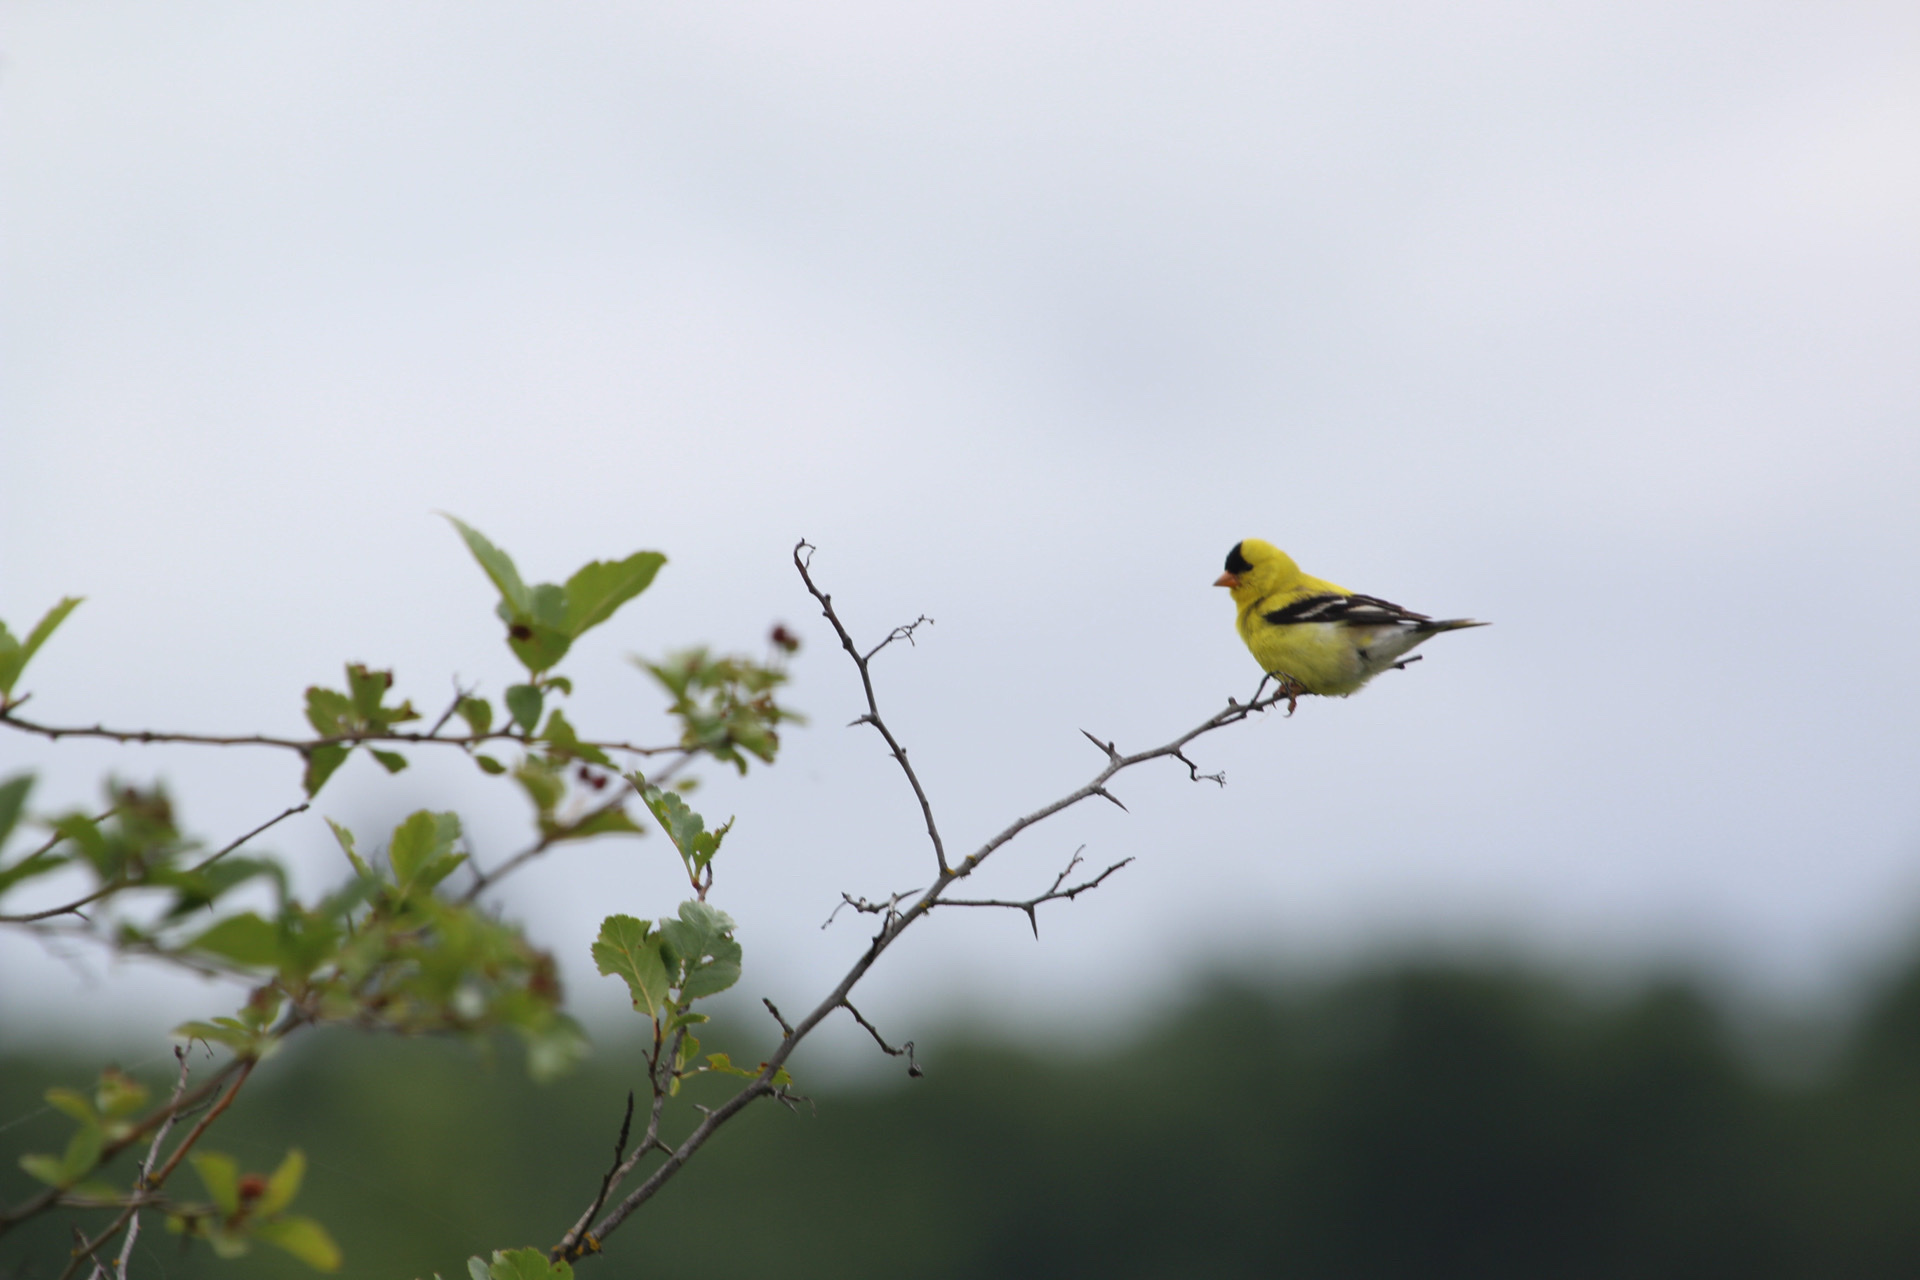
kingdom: Animalia
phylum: Chordata
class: Aves
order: Passeriformes
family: Fringillidae
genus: Spinus
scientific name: Spinus tristis
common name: American goldfinch
